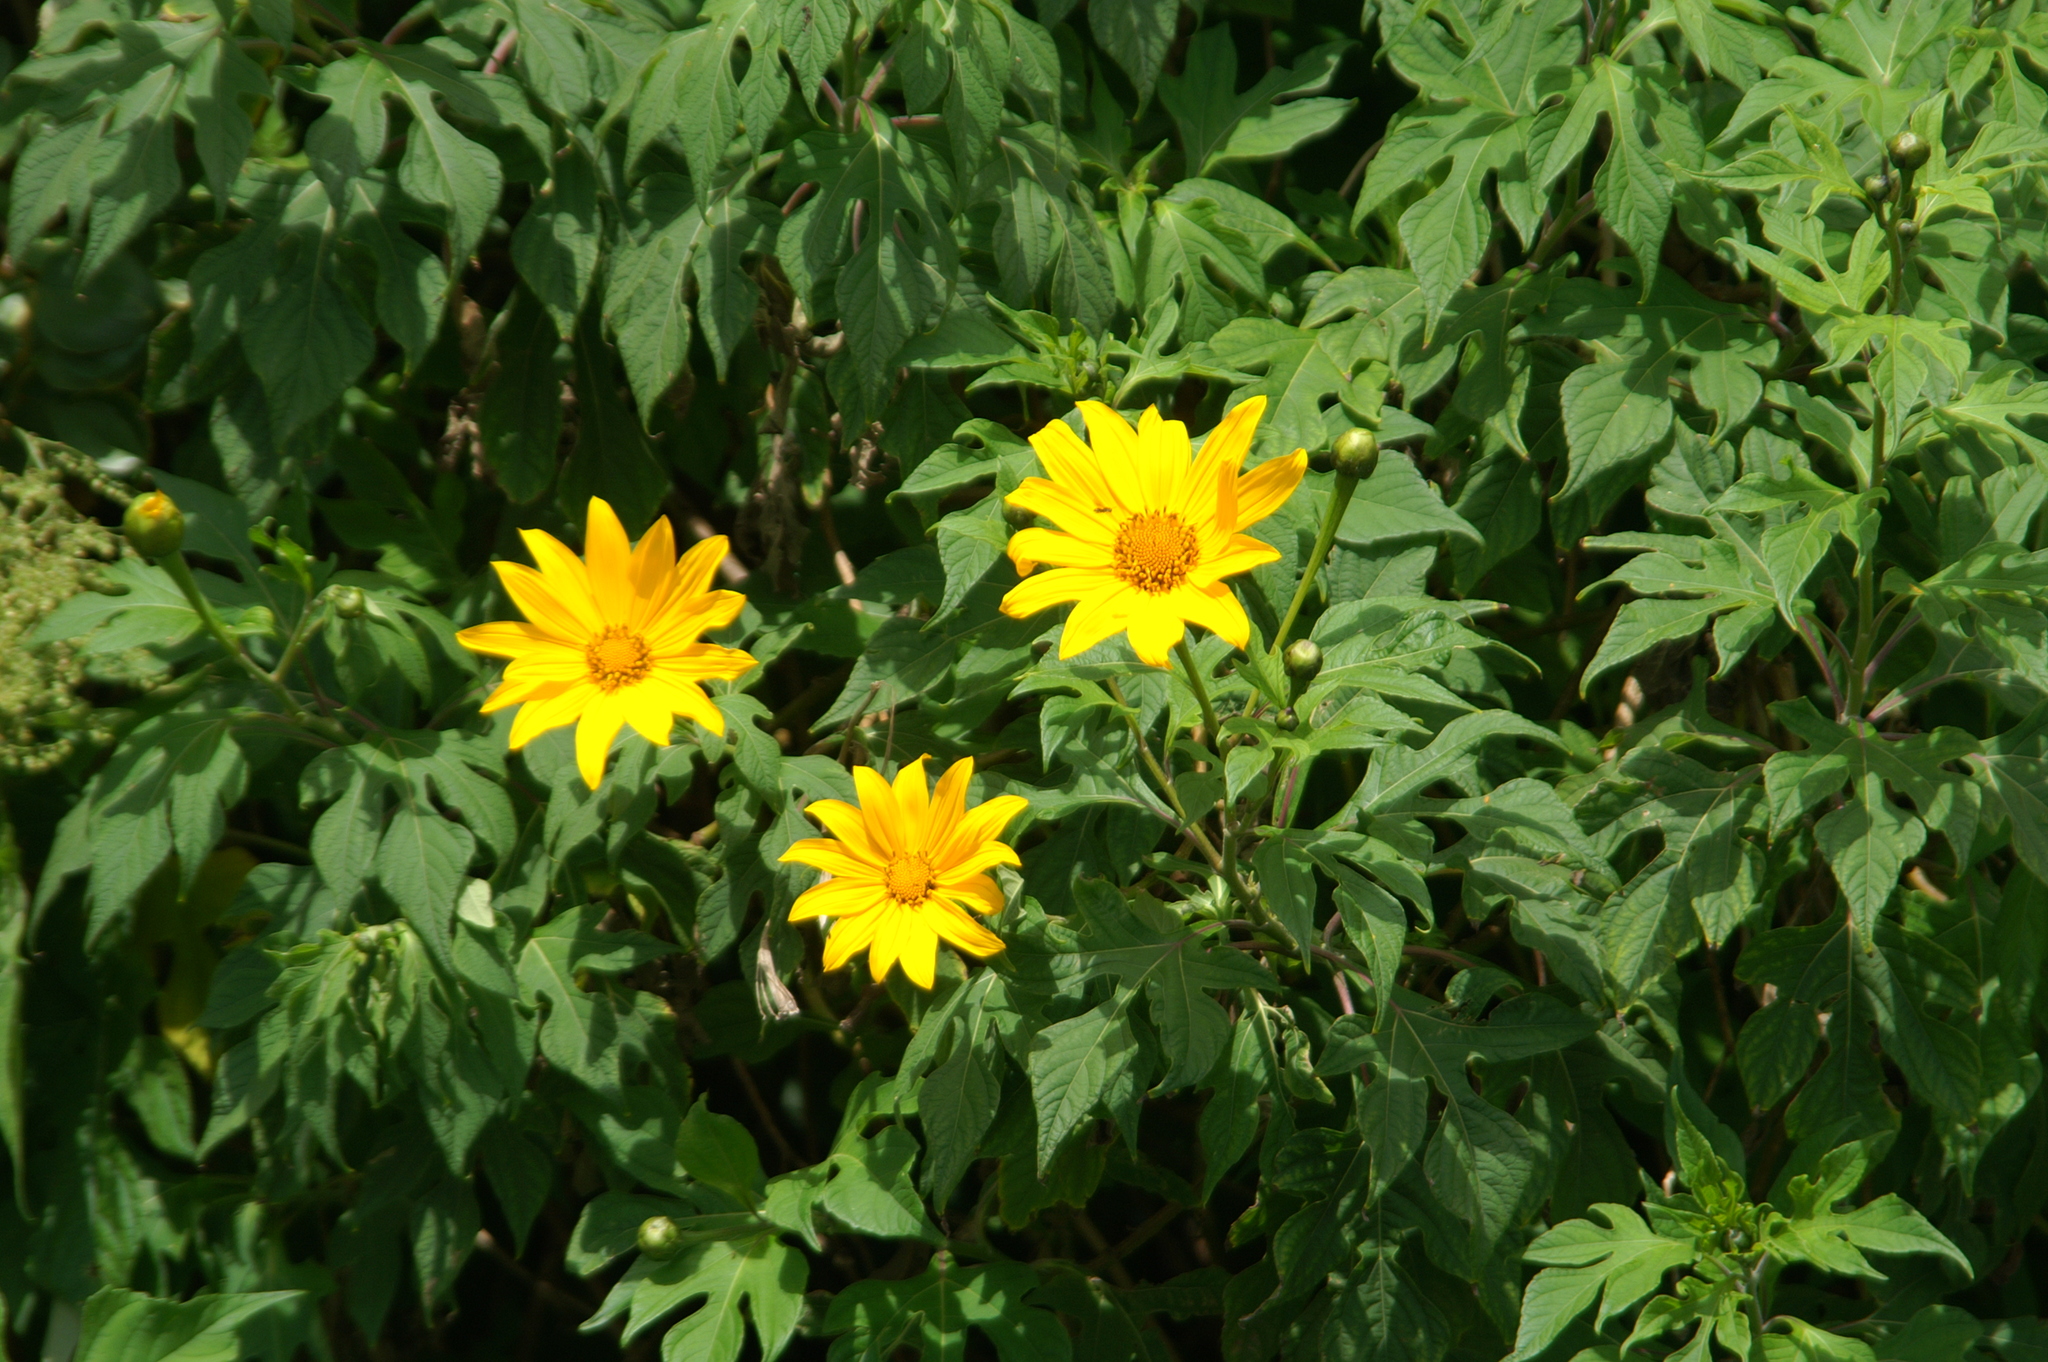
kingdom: Plantae
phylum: Tracheophyta
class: Magnoliopsida
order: Asterales
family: Asteraceae
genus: Tithonia
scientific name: Tithonia diversifolia
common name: Tree marigold
